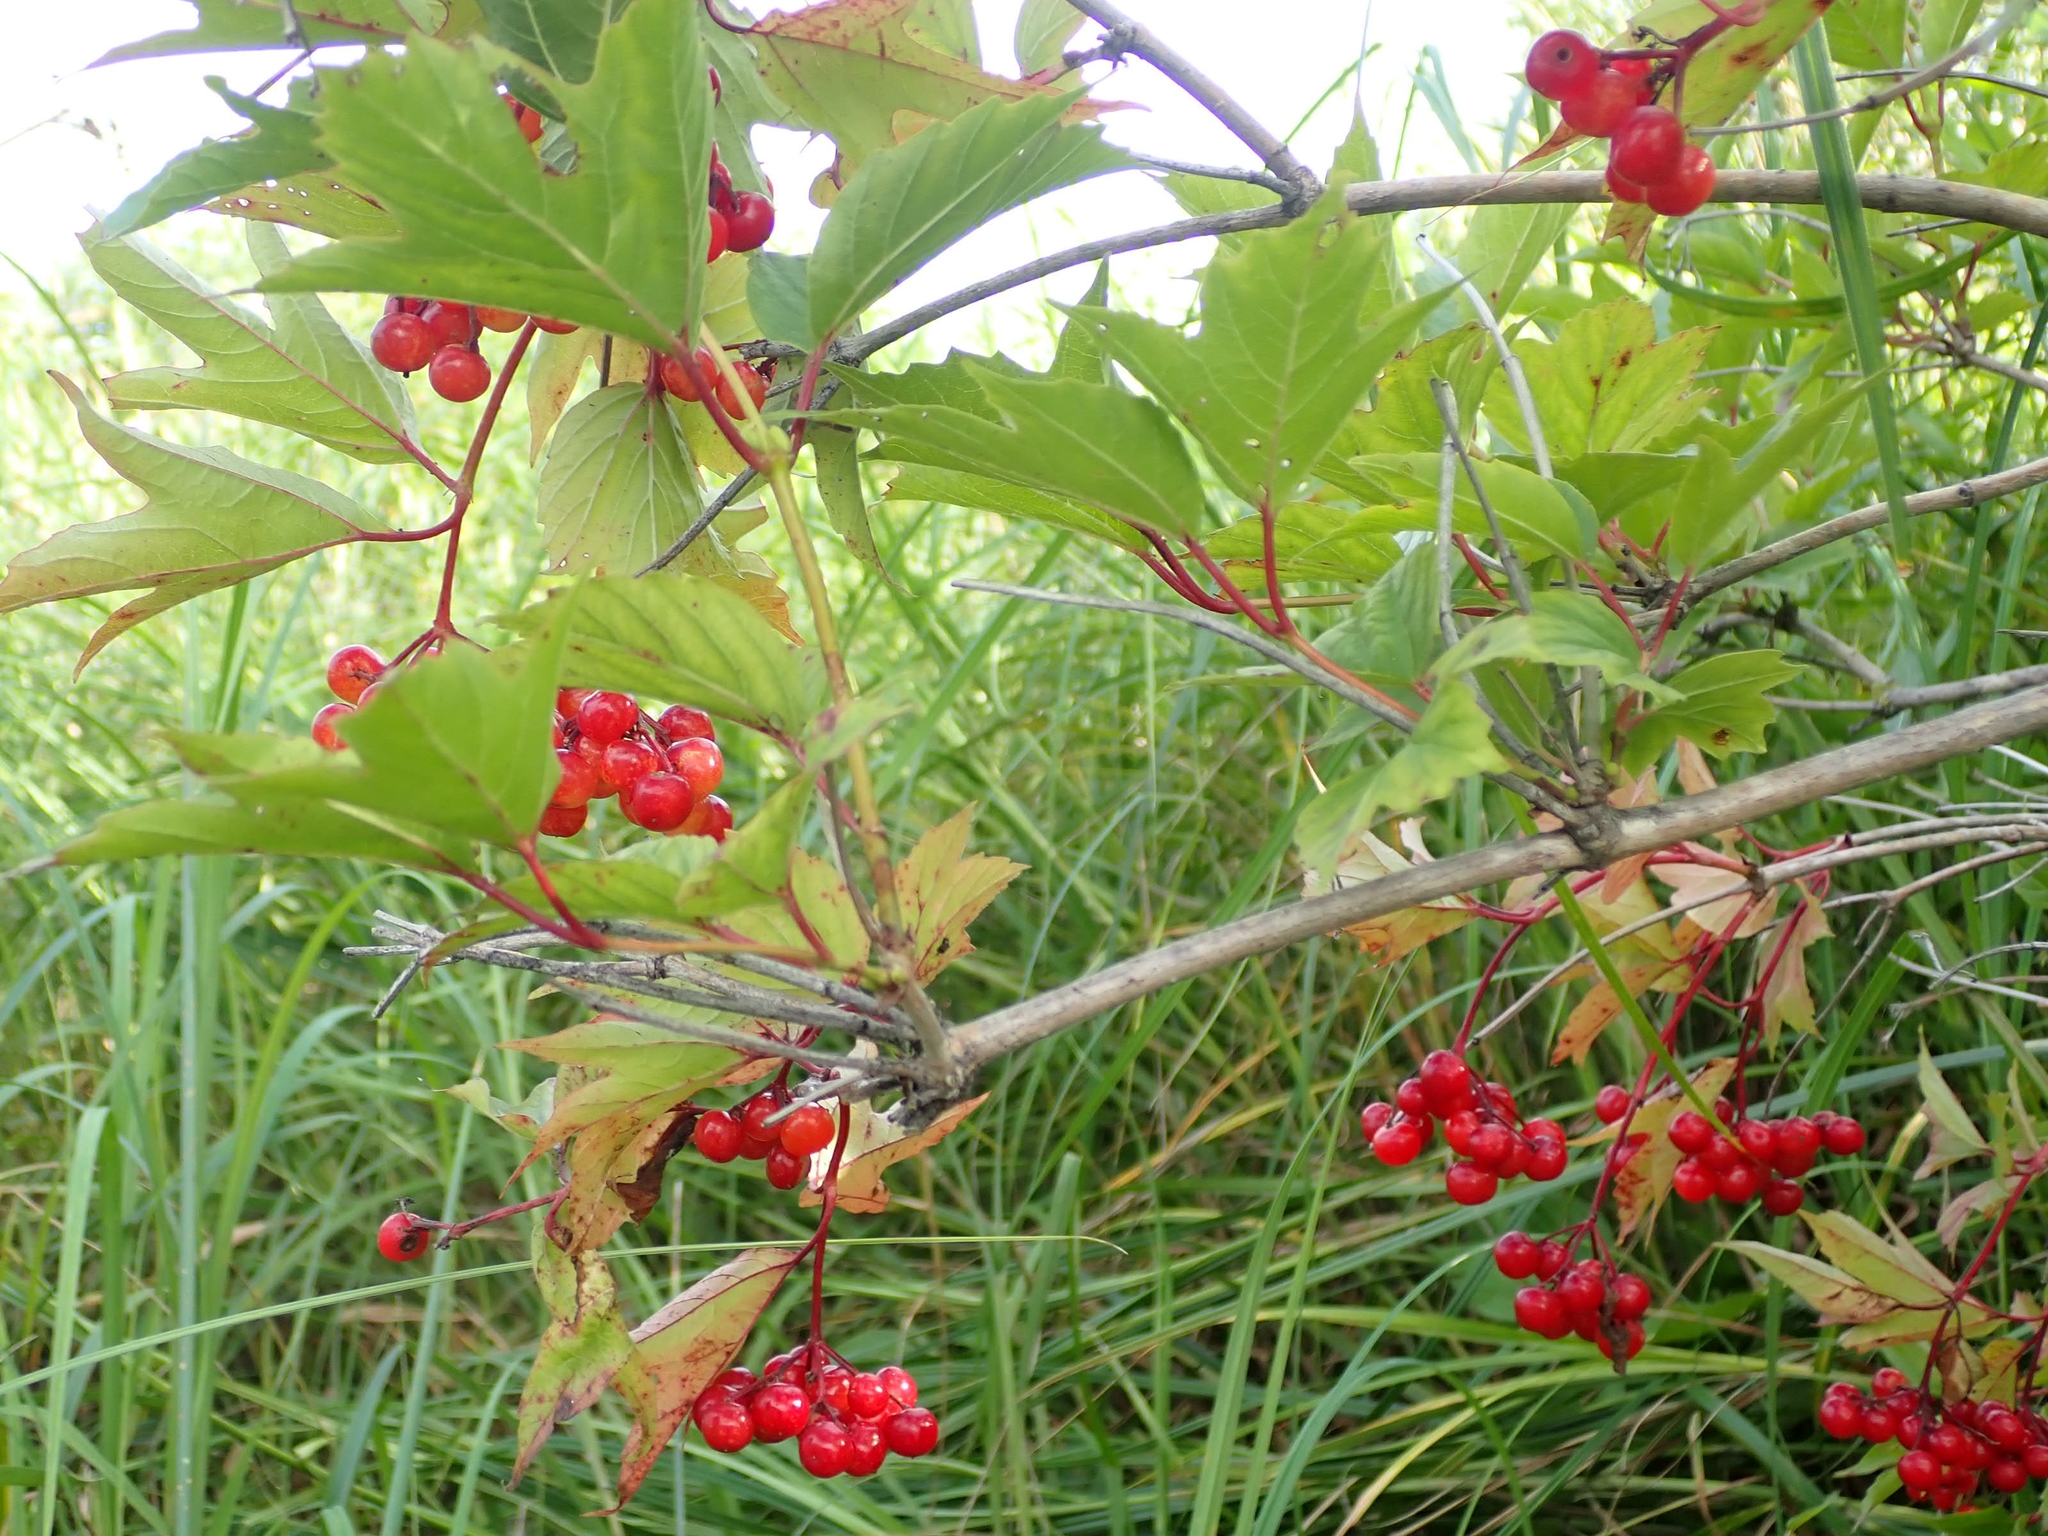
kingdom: Plantae
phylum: Tracheophyta
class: Magnoliopsida
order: Dipsacales
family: Viburnaceae
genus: Viburnum
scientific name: Viburnum trilobum
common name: American cranberrybush
